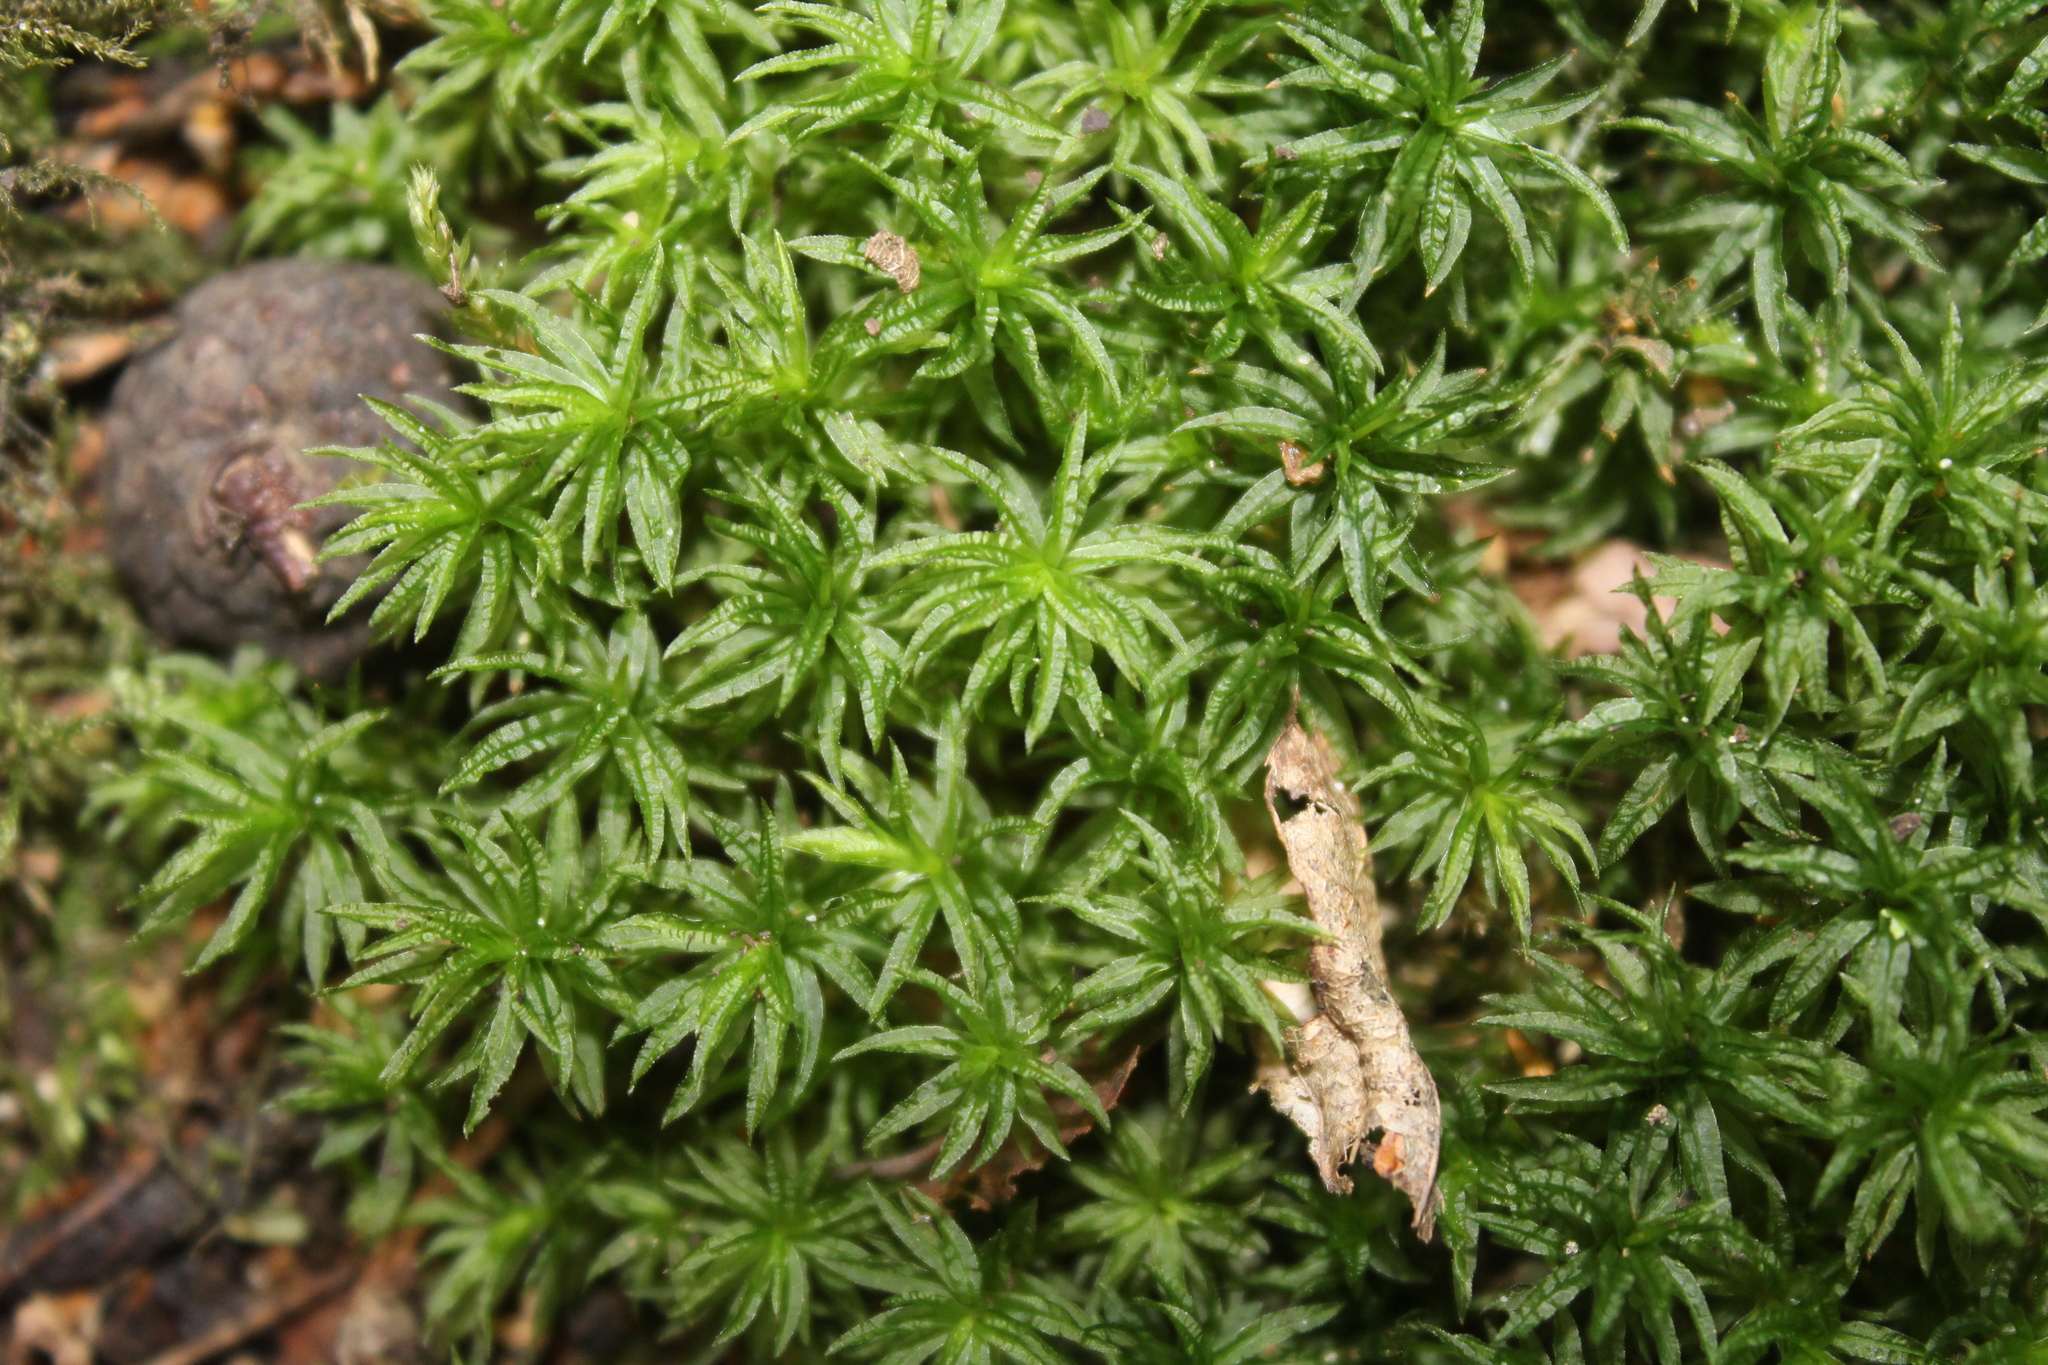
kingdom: Plantae
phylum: Bryophyta
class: Polytrichopsida
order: Polytrichales
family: Polytrichaceae
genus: Atrichum
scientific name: Atrichum undulatum
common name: Common smoothcap
